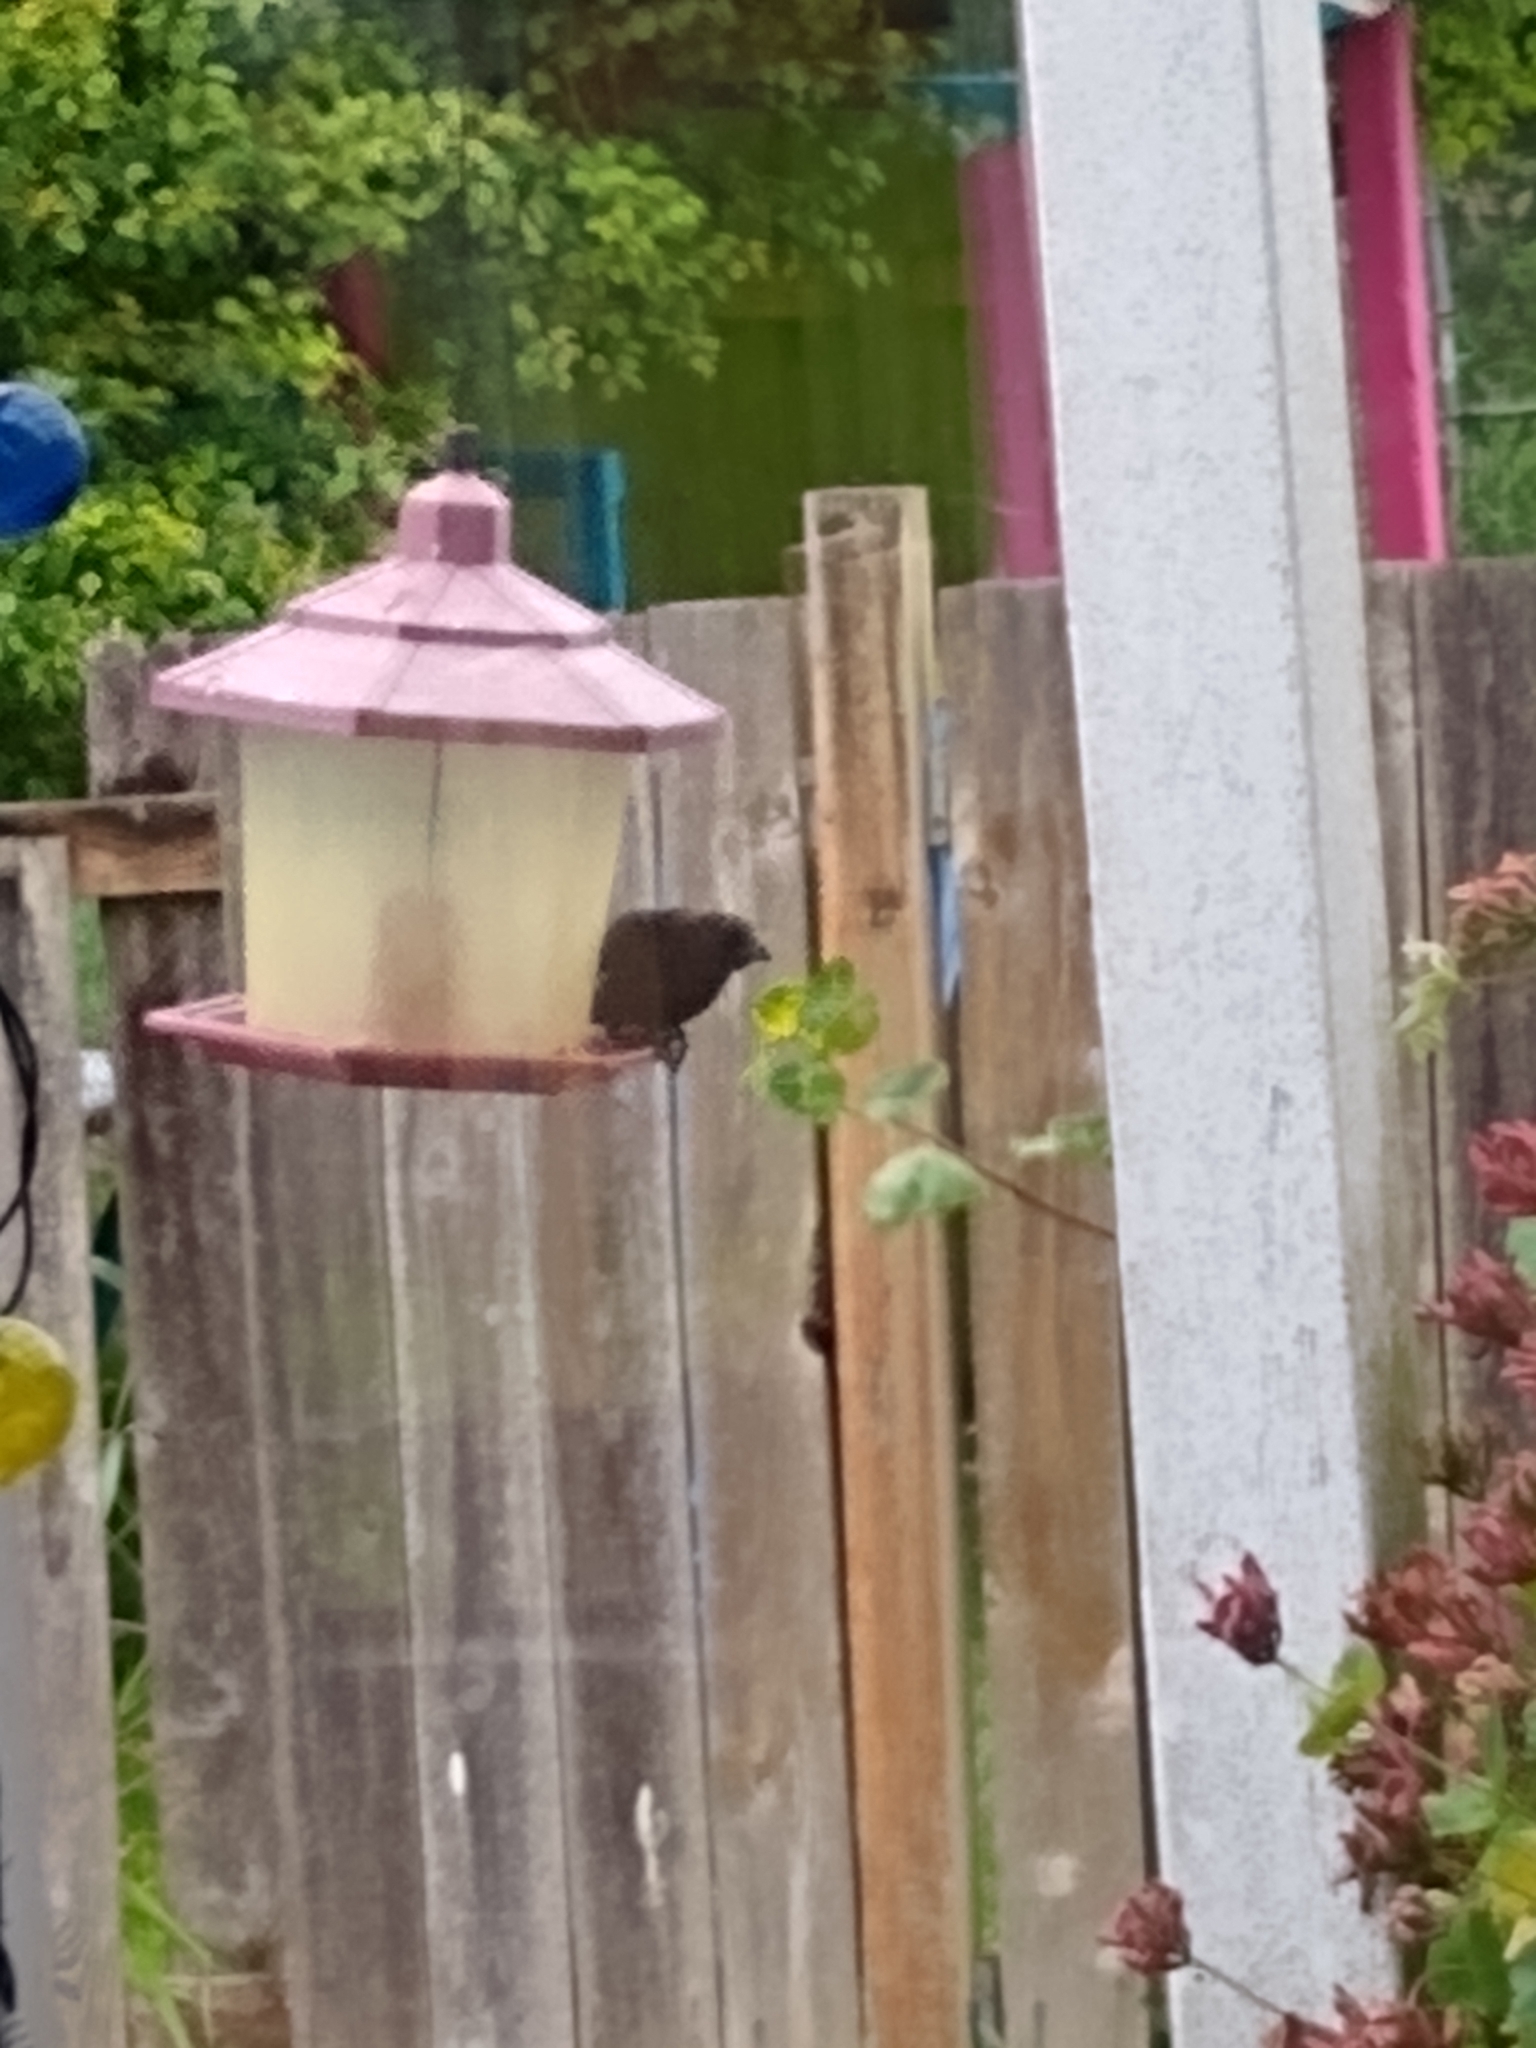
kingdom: Animalia
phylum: Chordata
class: Aves
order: Passeriformes
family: Icteridae
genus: Molothrus
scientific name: Molothrus ater
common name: Brown-headed cowbird
